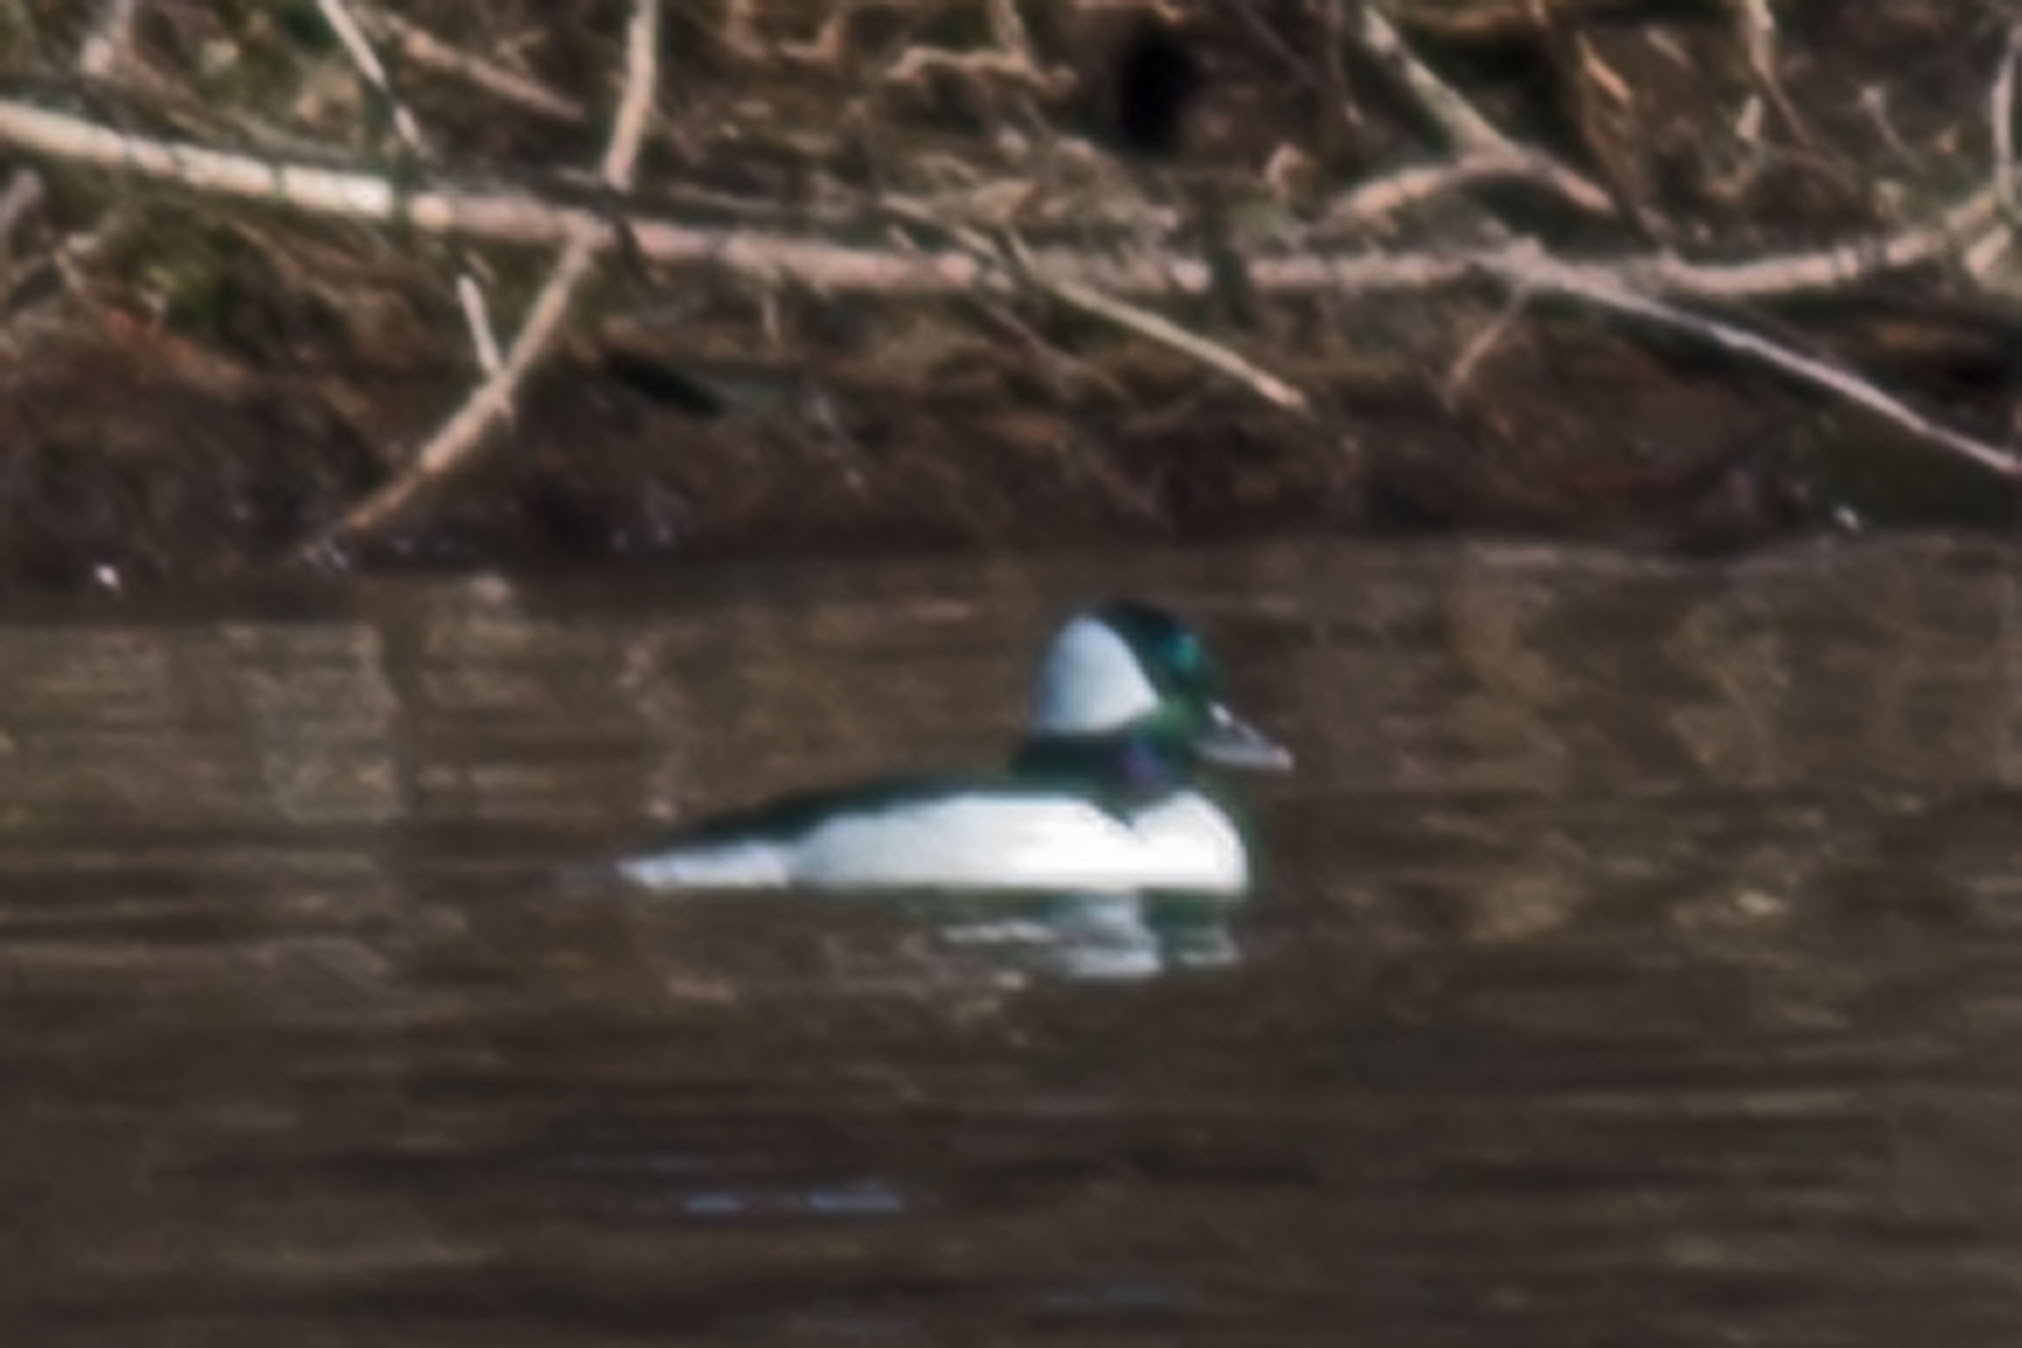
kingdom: Animalia
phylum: Chordata
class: Aves
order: Anseriformes
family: Anatidae
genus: Bucephala
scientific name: Bucephala albeola
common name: Bufflehead
